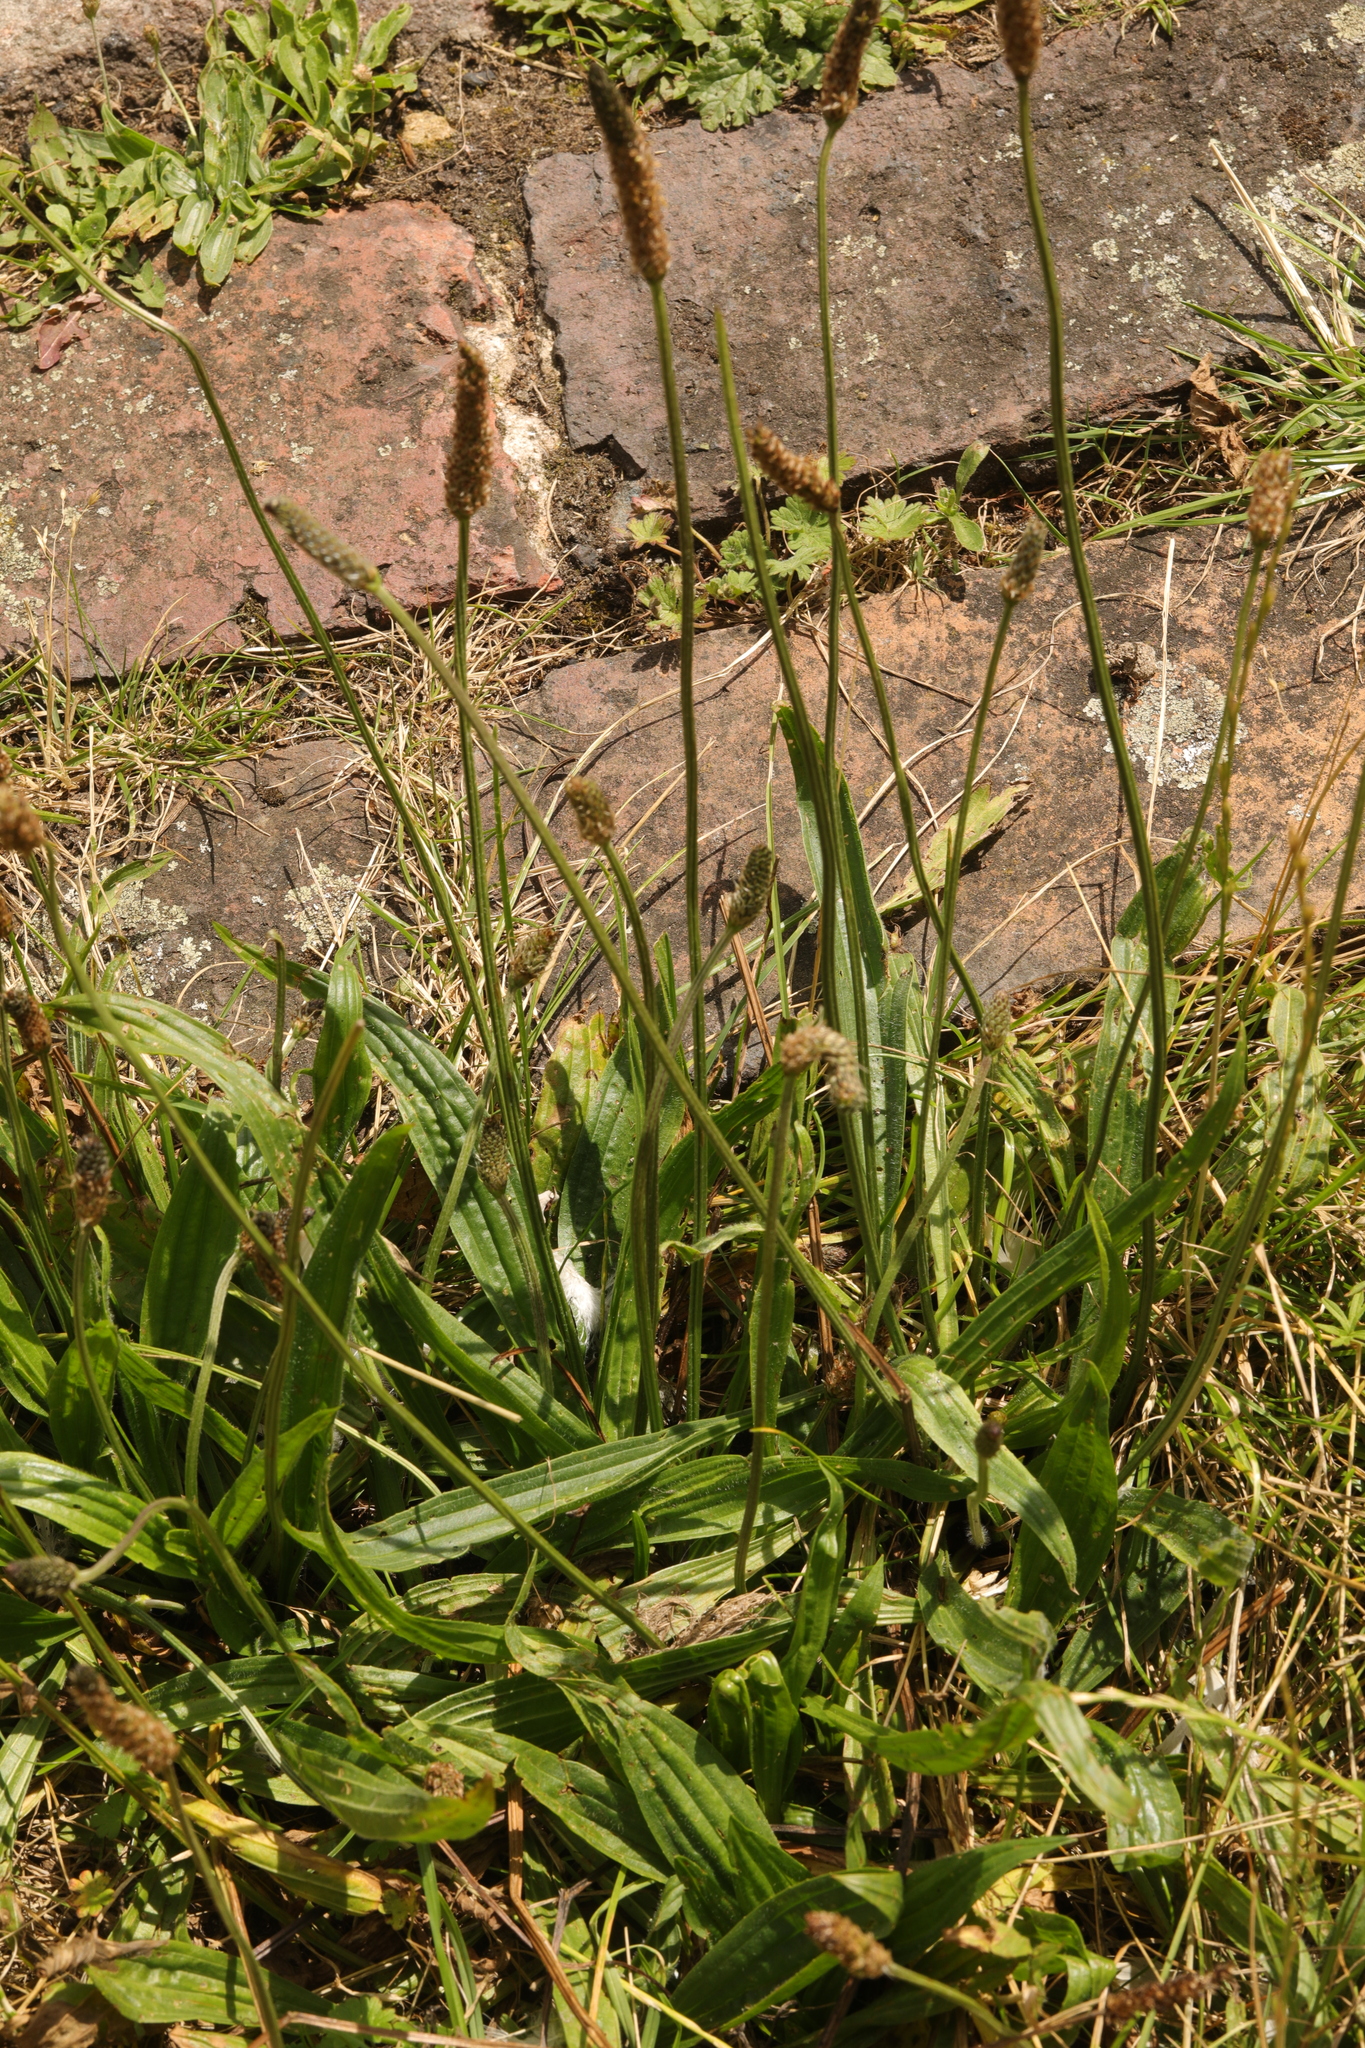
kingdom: Plantae
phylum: Tracheophyta
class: Magnoliopsida
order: Lamiales
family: Plantaginaceae
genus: Plantago
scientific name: Plantago lanceolata
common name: Ribwort plantain
